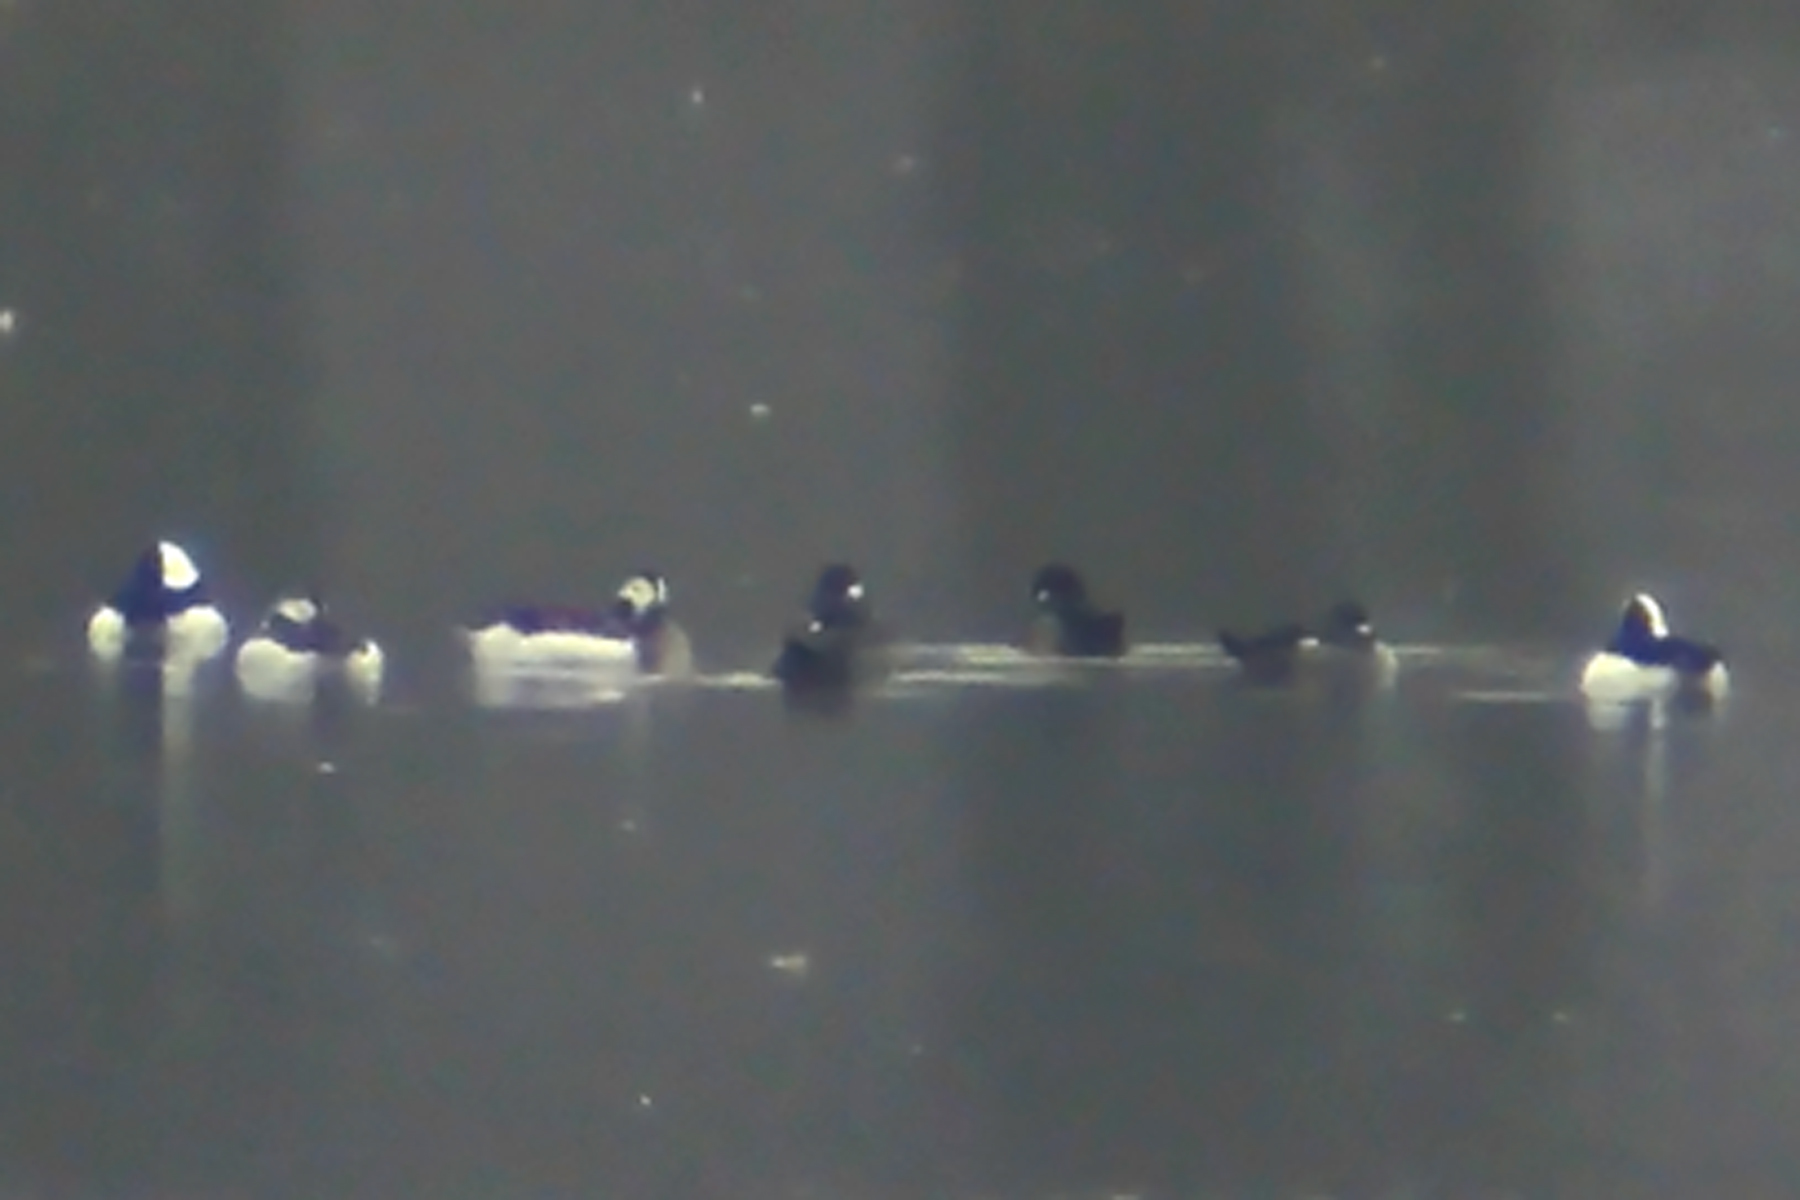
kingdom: Animalia
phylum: Chordata
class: Aves
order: Anseriformes
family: Anatidae
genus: Clangula
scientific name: Clangula hyemalis
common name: Long-tailed duck
